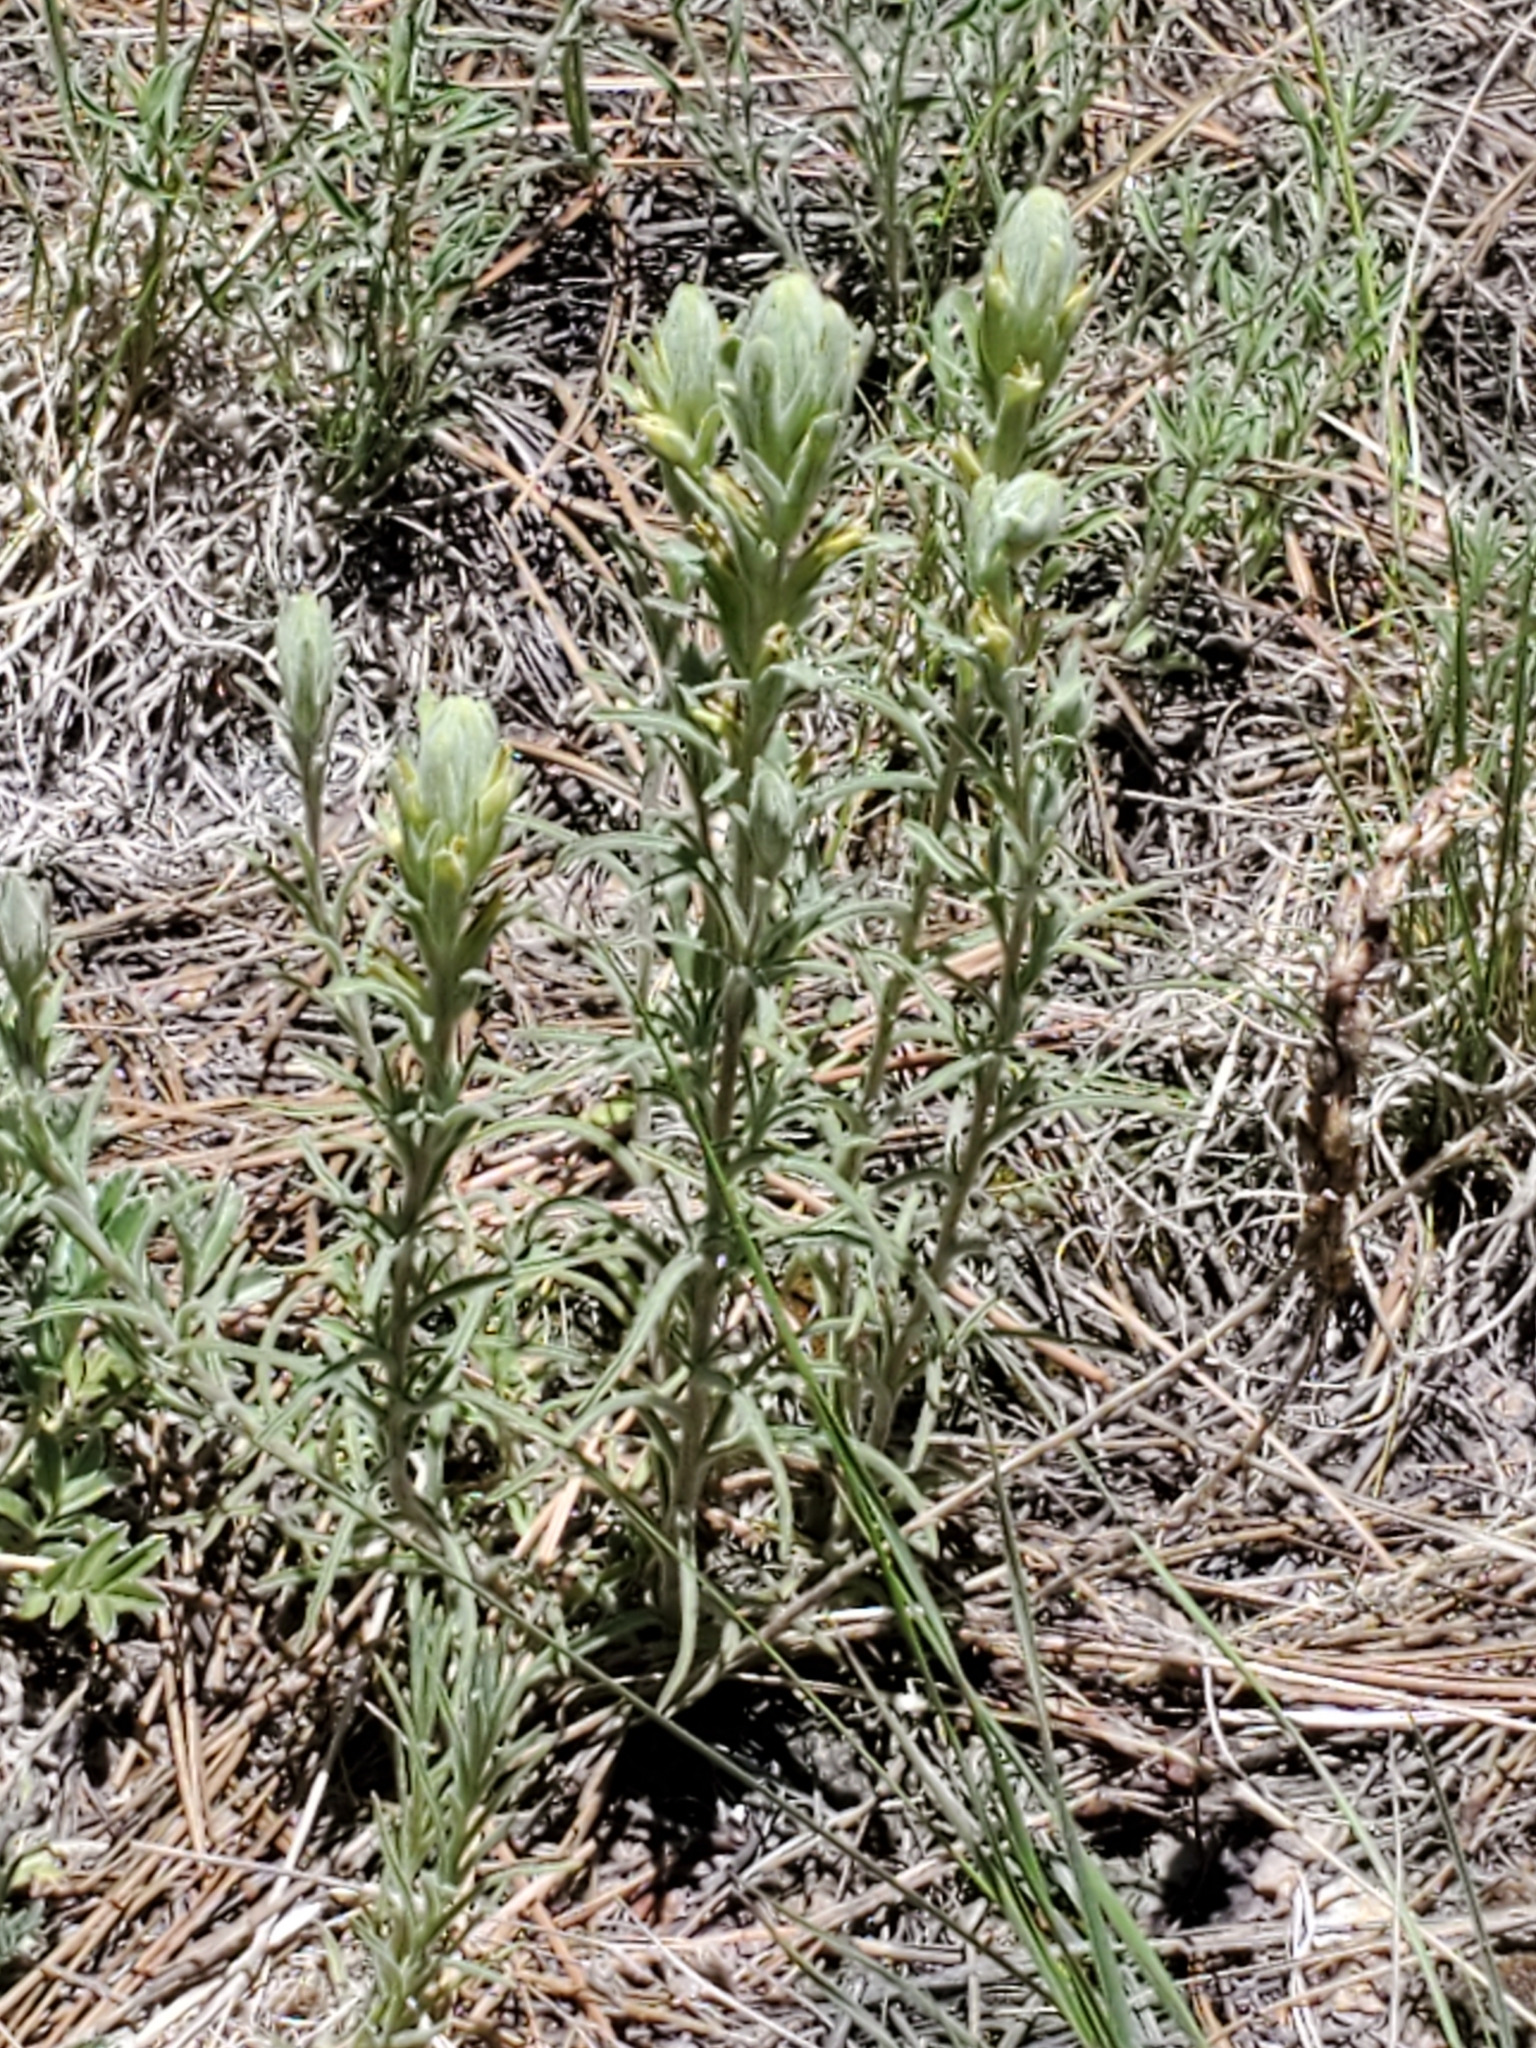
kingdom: Plantae
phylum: Tracheophyta
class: Magnoliopsida
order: Lamiales
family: Orobanchaceae
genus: Castilleja
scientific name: Castilleja lineata
